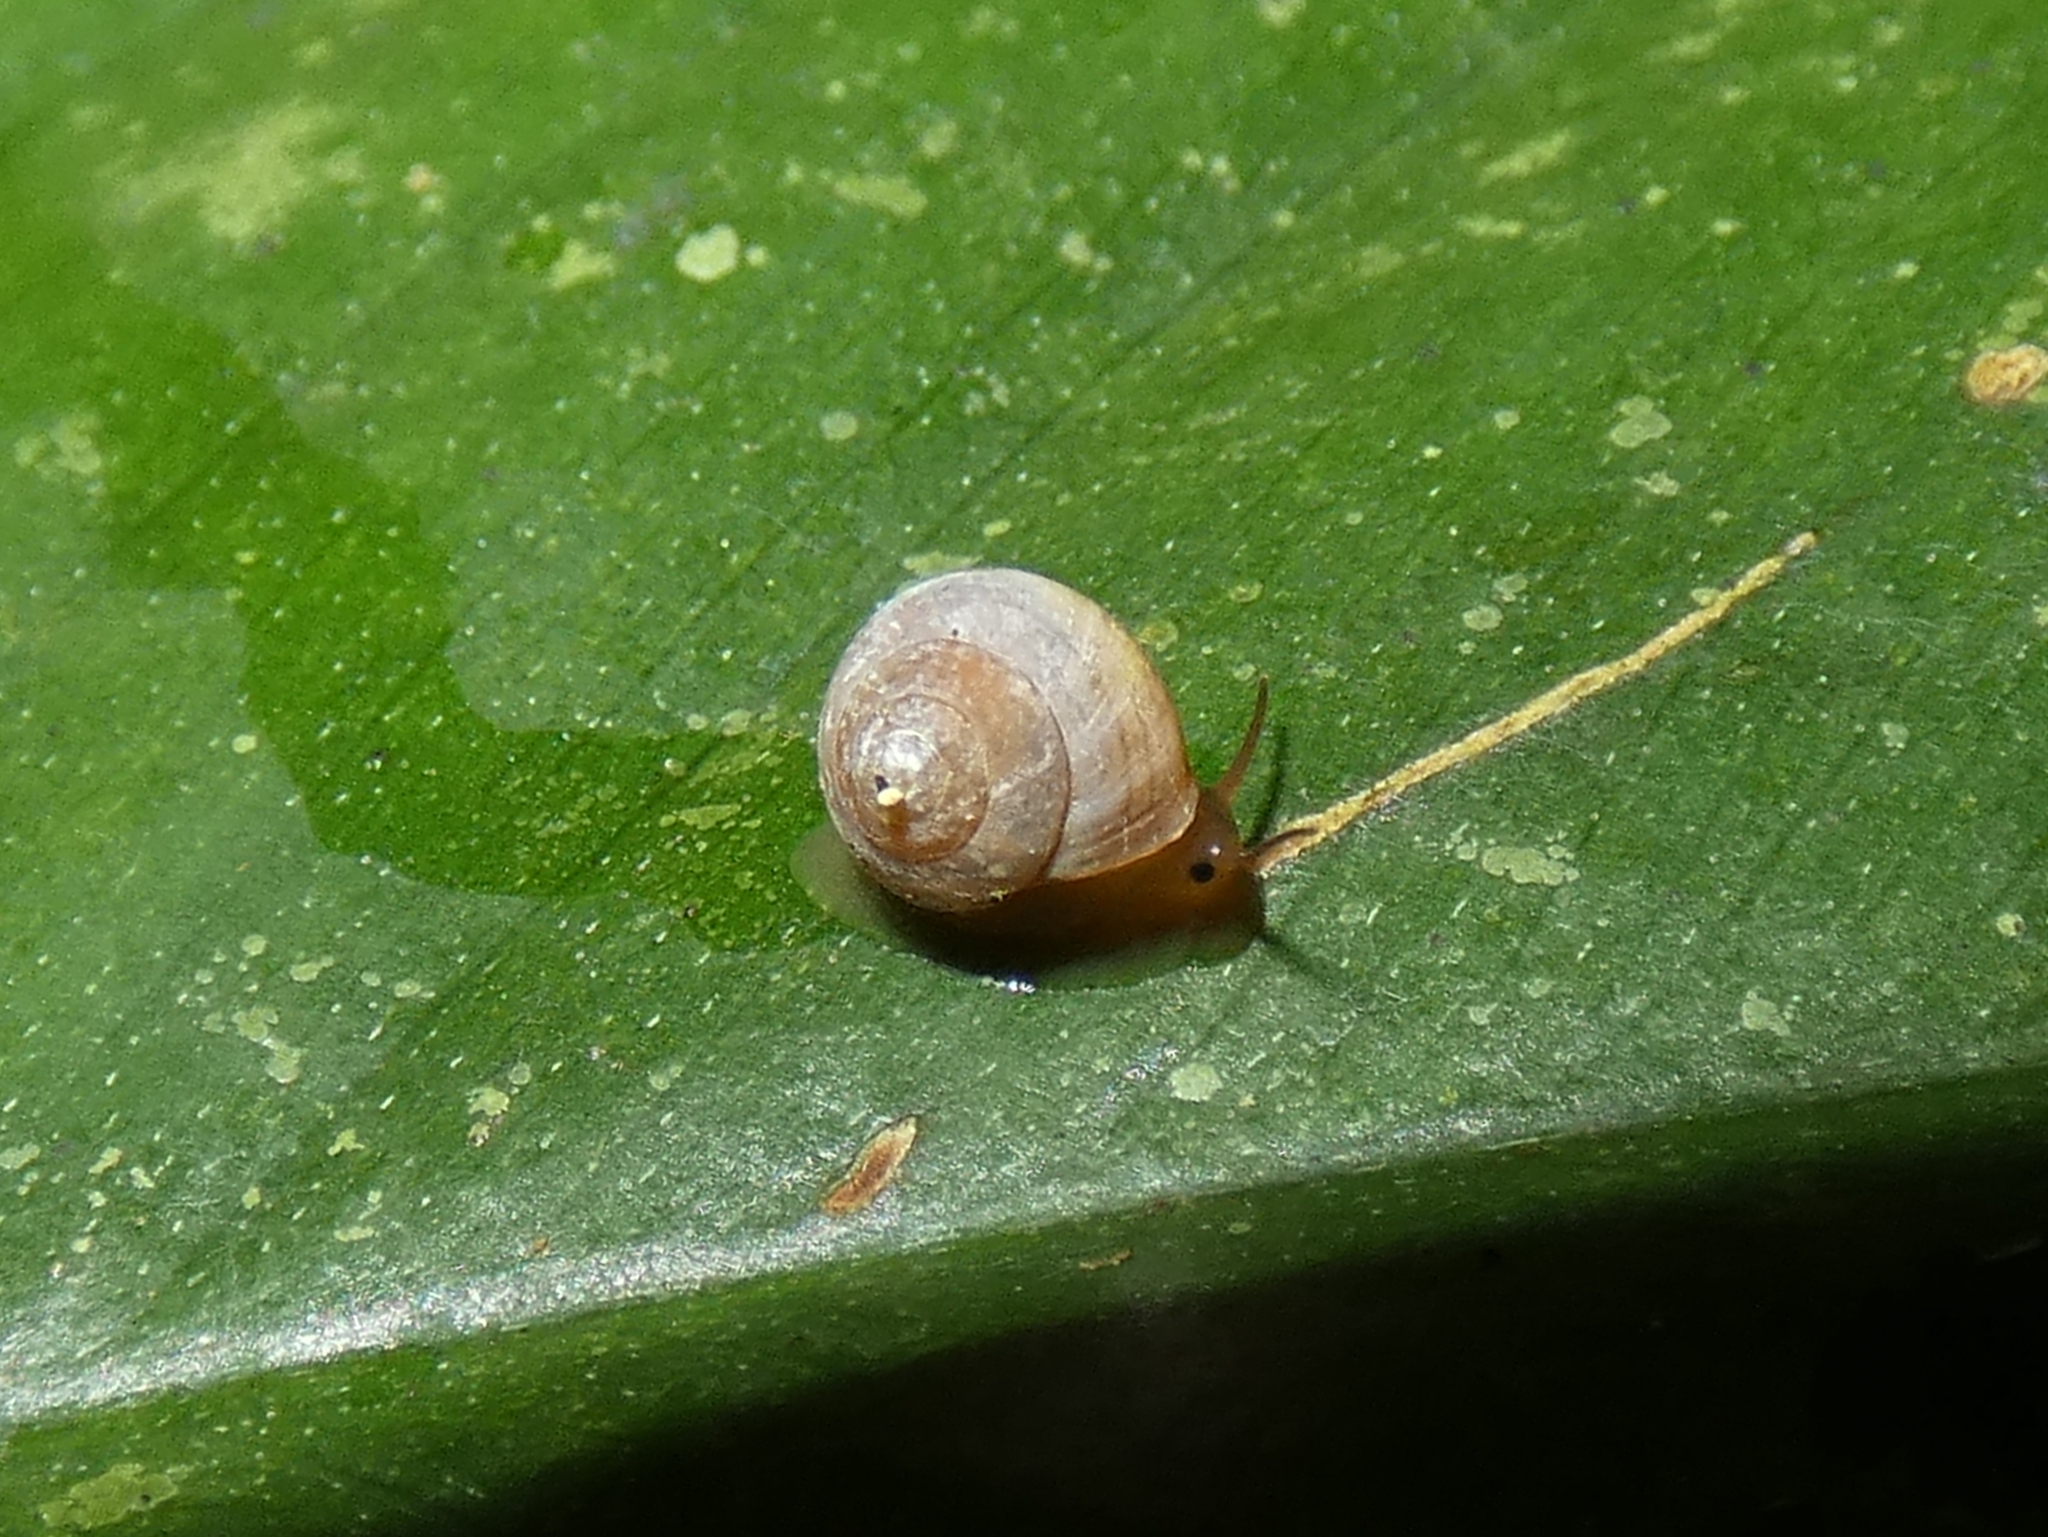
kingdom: Animalia
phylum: Mollusca
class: Gastropoda
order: Cycloneritida
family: Helicinidae
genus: Pleuropoma
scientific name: Pleuropoma gouldiana
